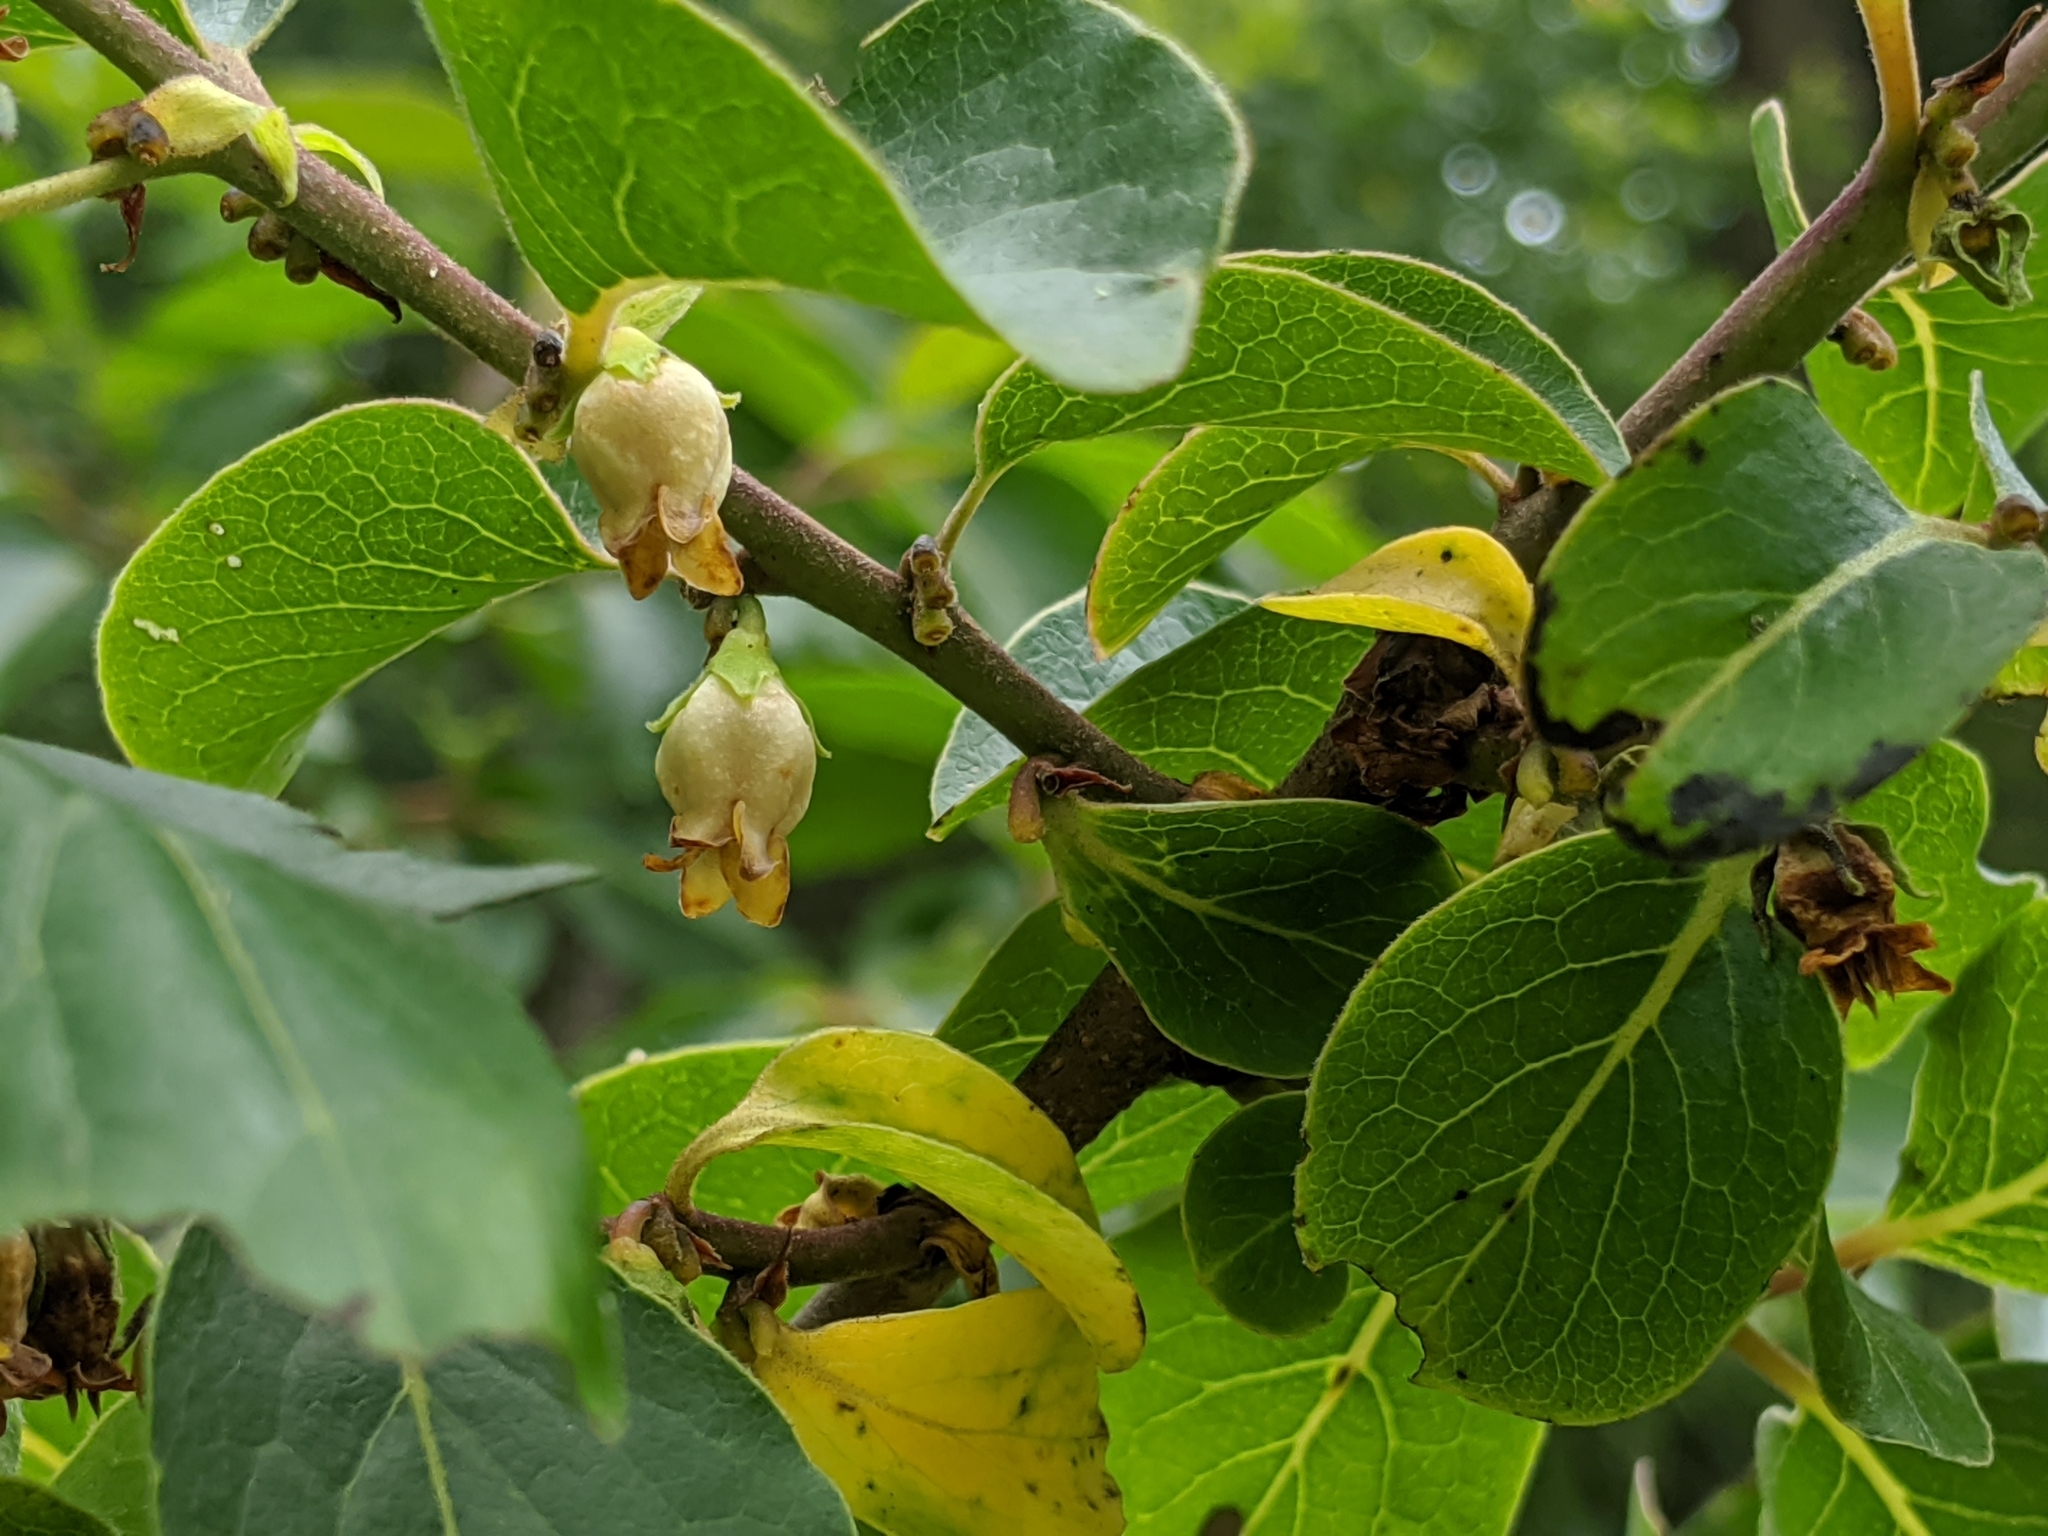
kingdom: Plantae
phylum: Tracheophyta
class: Magnoliopsida
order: Ericales
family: Ebenaceae
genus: Diospyros
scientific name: Diospyros virginiana
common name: Persimmon
